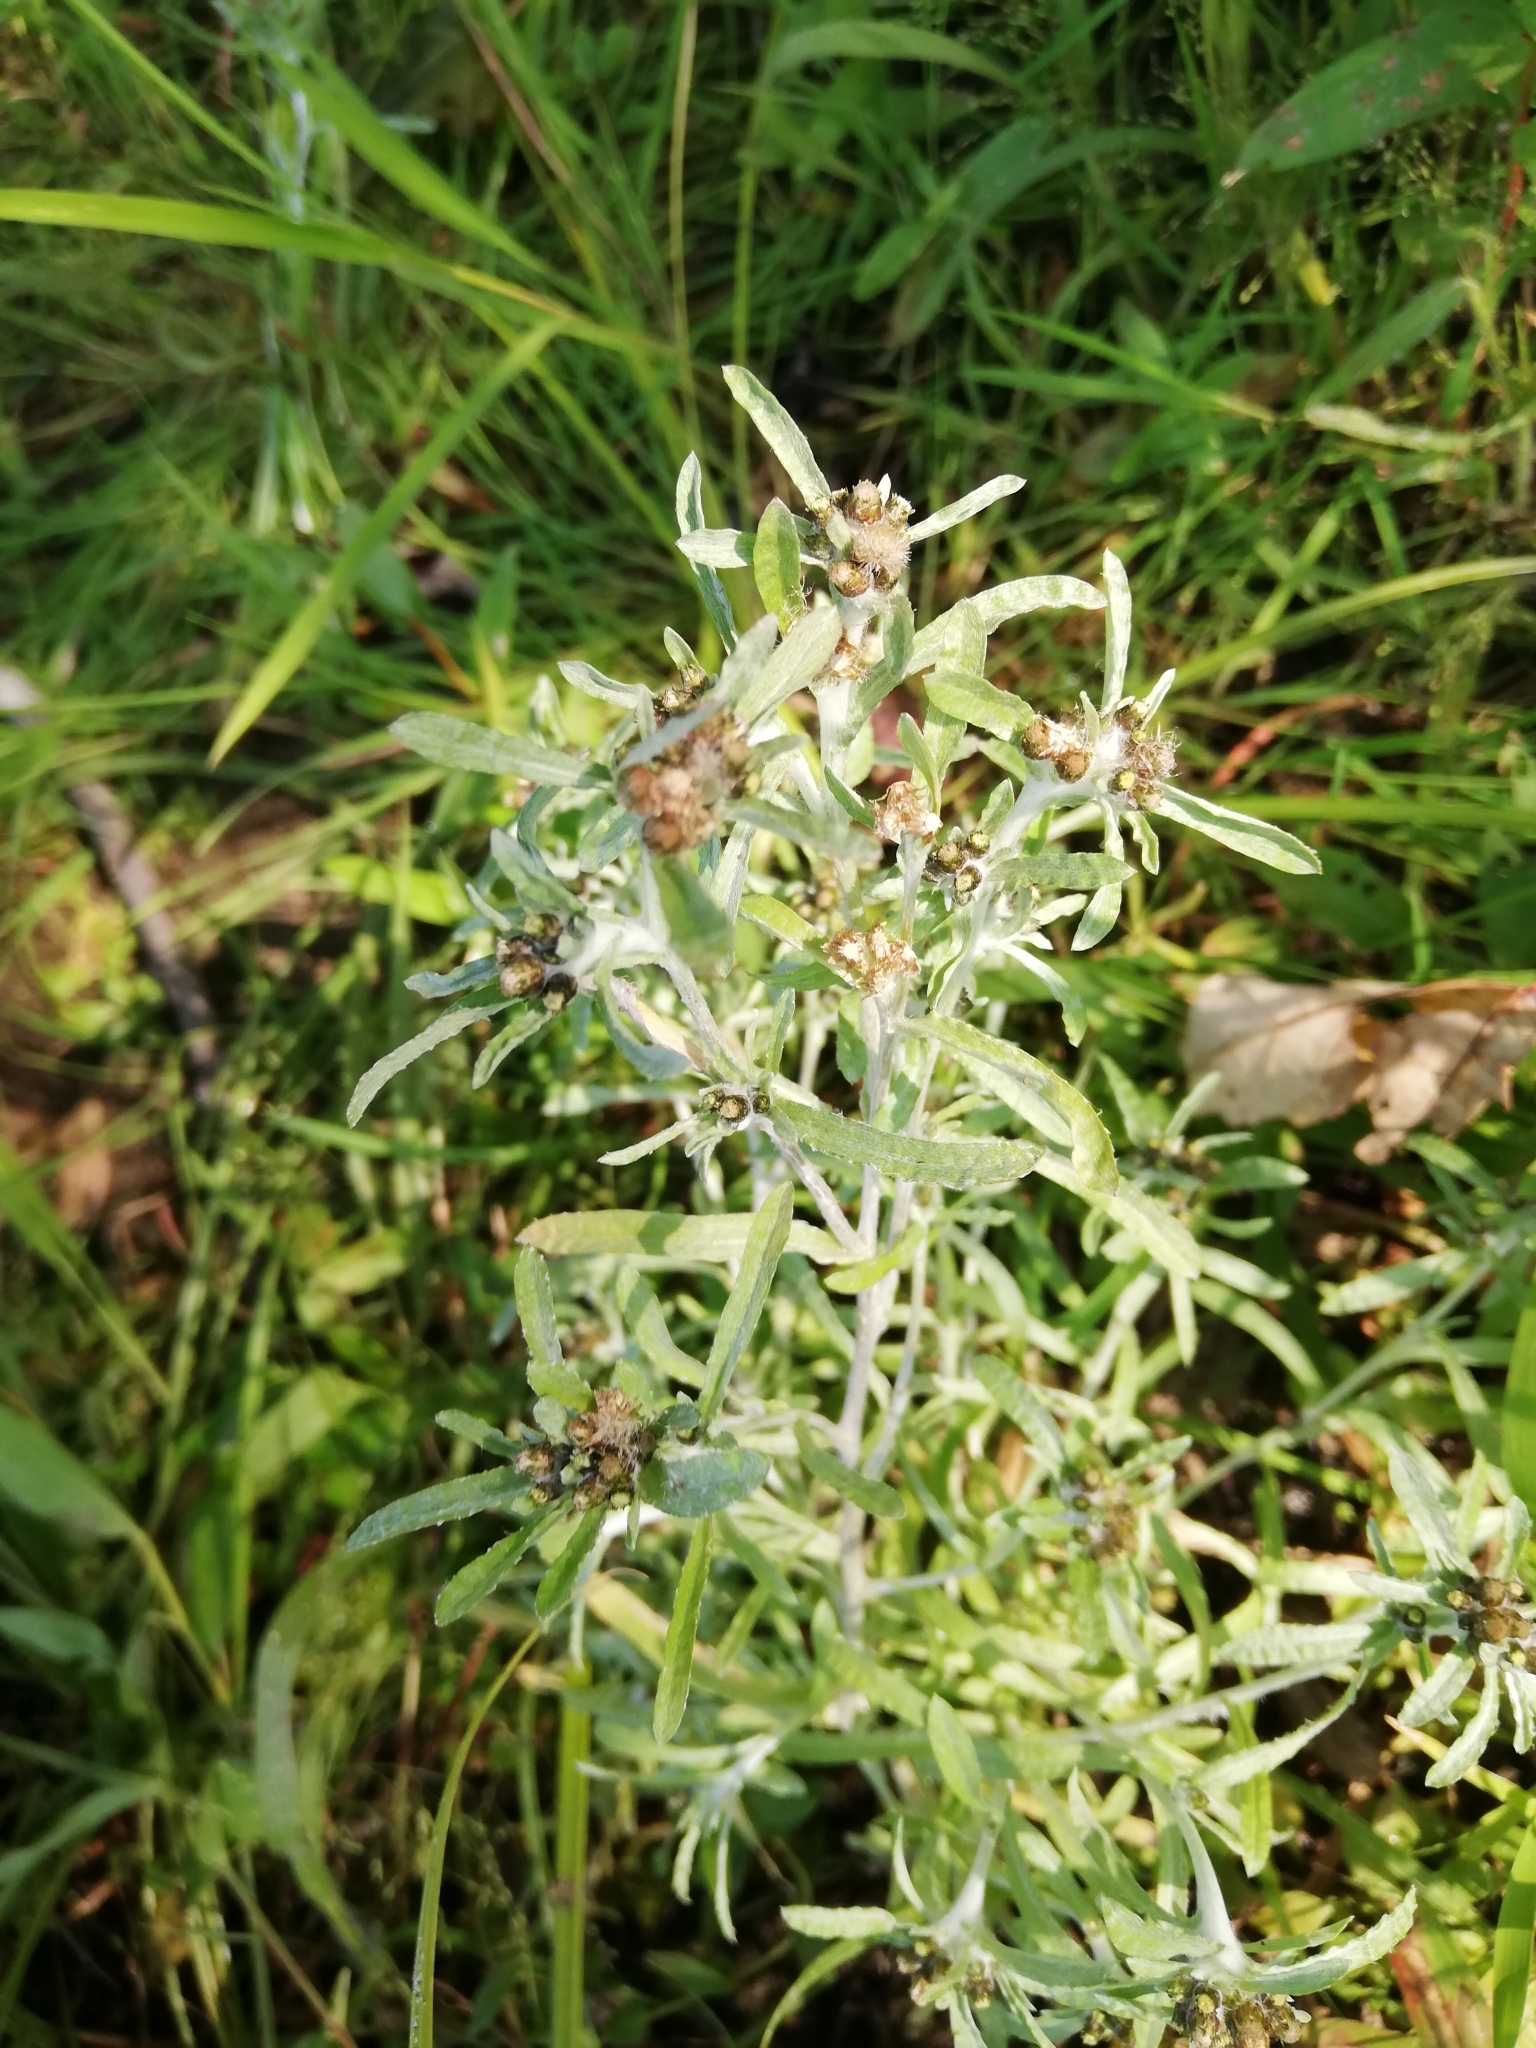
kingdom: Plantae
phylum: Tracheophyta
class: Magnoliopsida
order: Asterales
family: Asteraceae
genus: Gnaphalium
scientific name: Gnaphalium uliginosum
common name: Marsh cudweed
